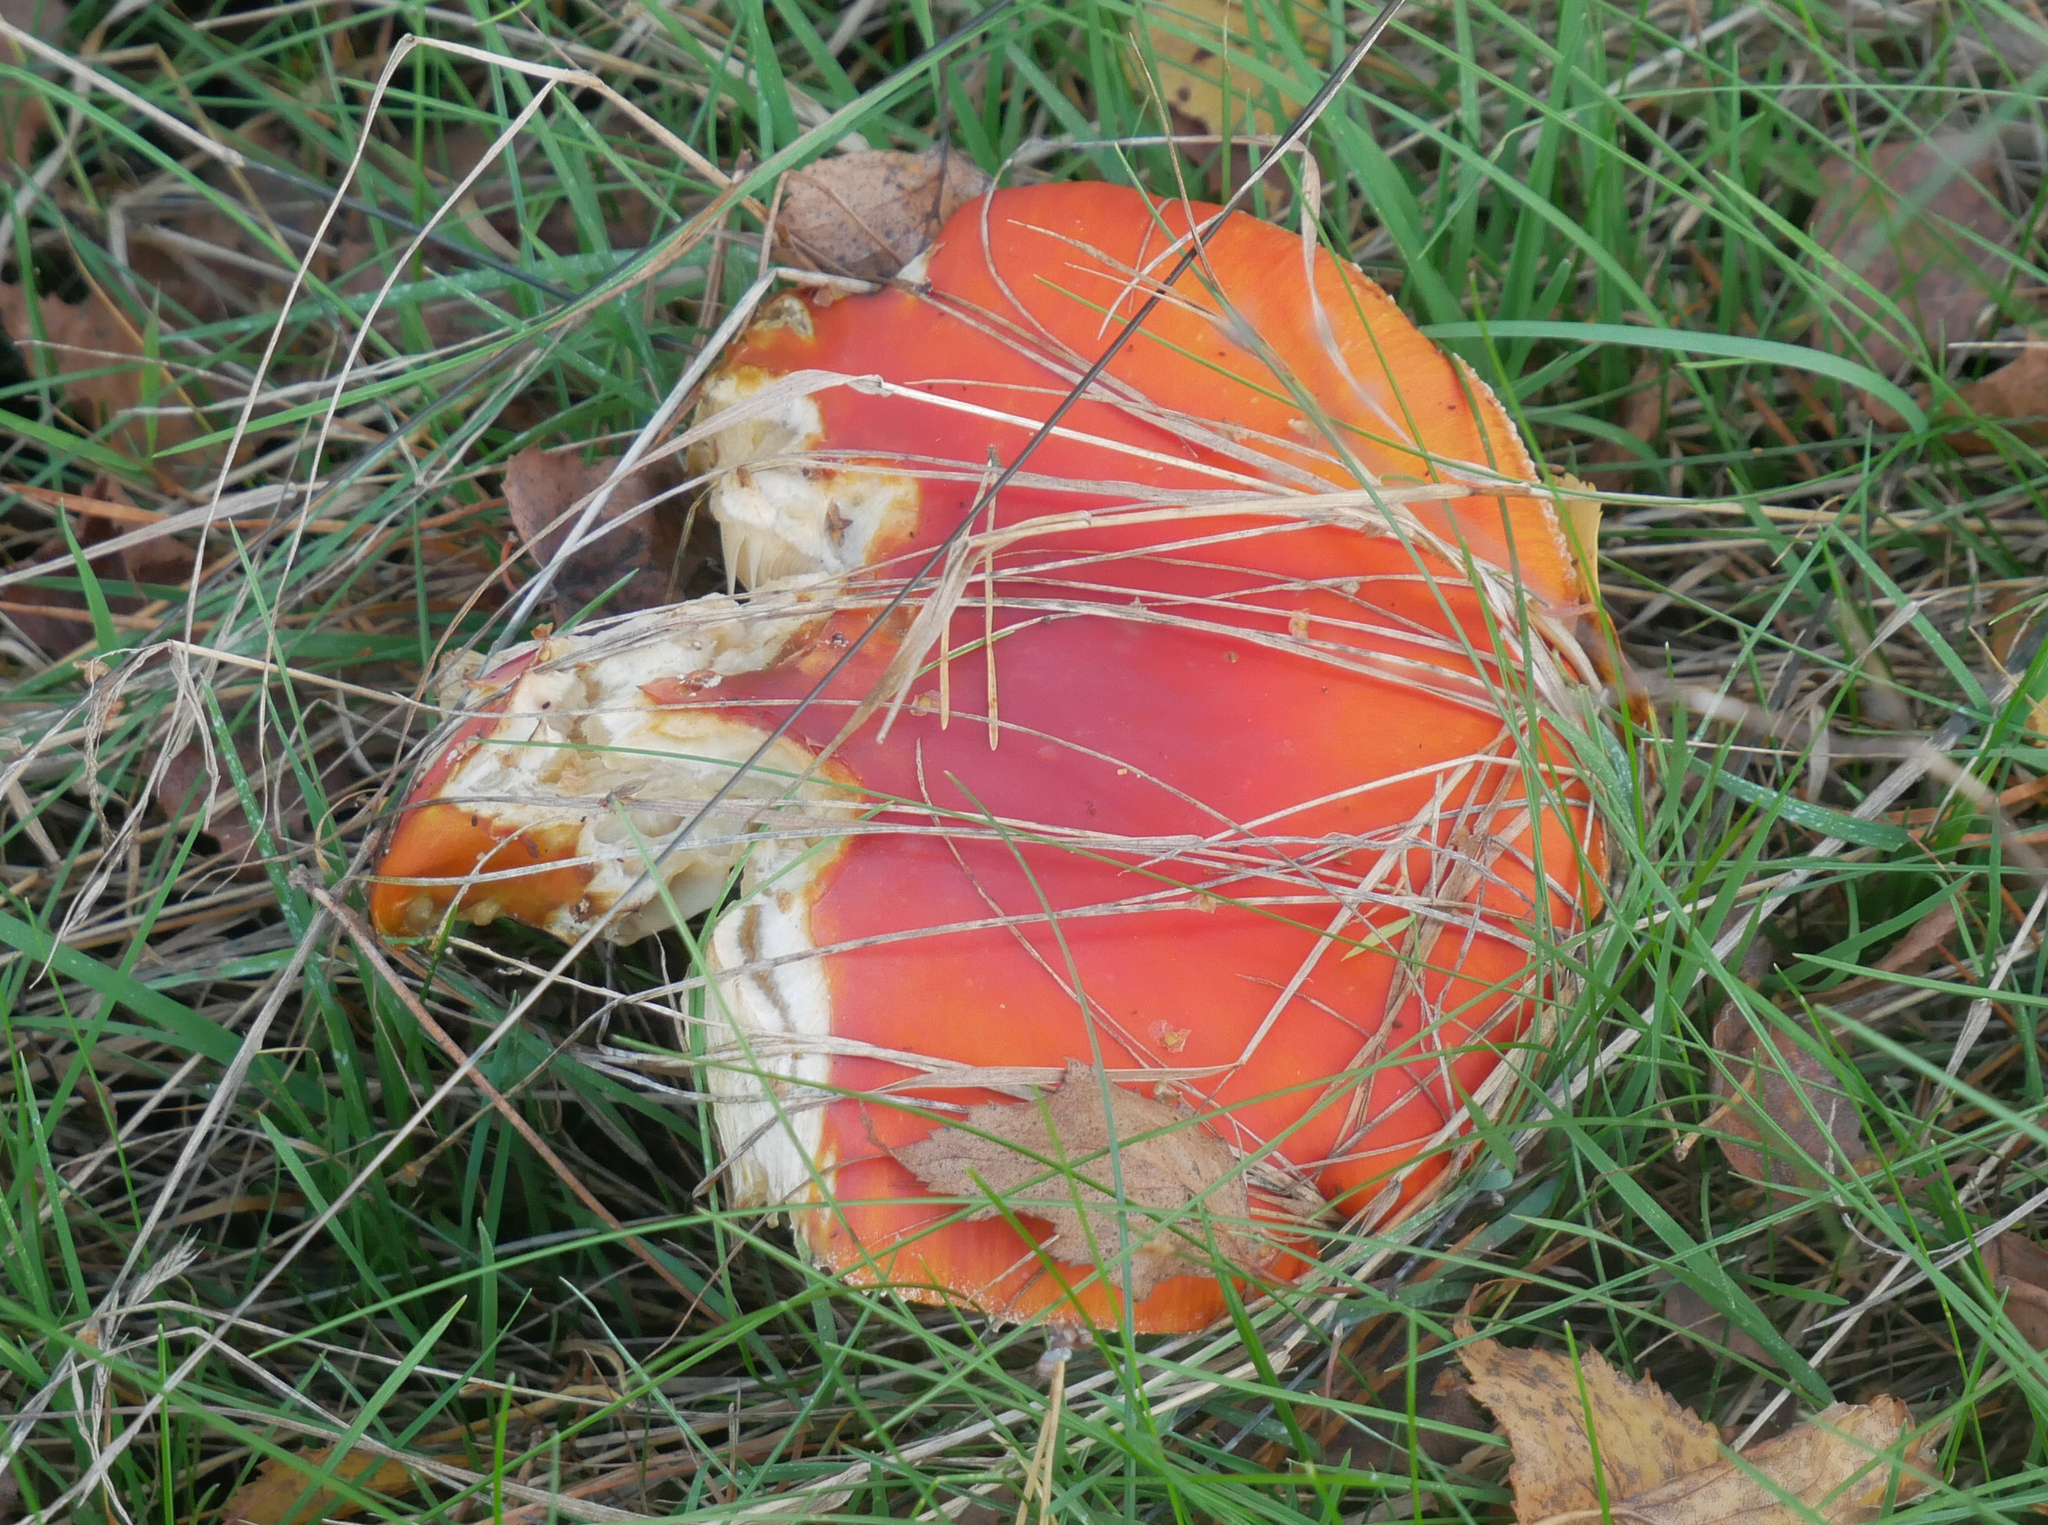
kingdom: Fungi
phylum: Basidiomycota
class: Agaricomycetes
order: Agaricales
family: Amanitaceae
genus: Amanita
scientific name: Amanita muscaria
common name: Fly agaric
